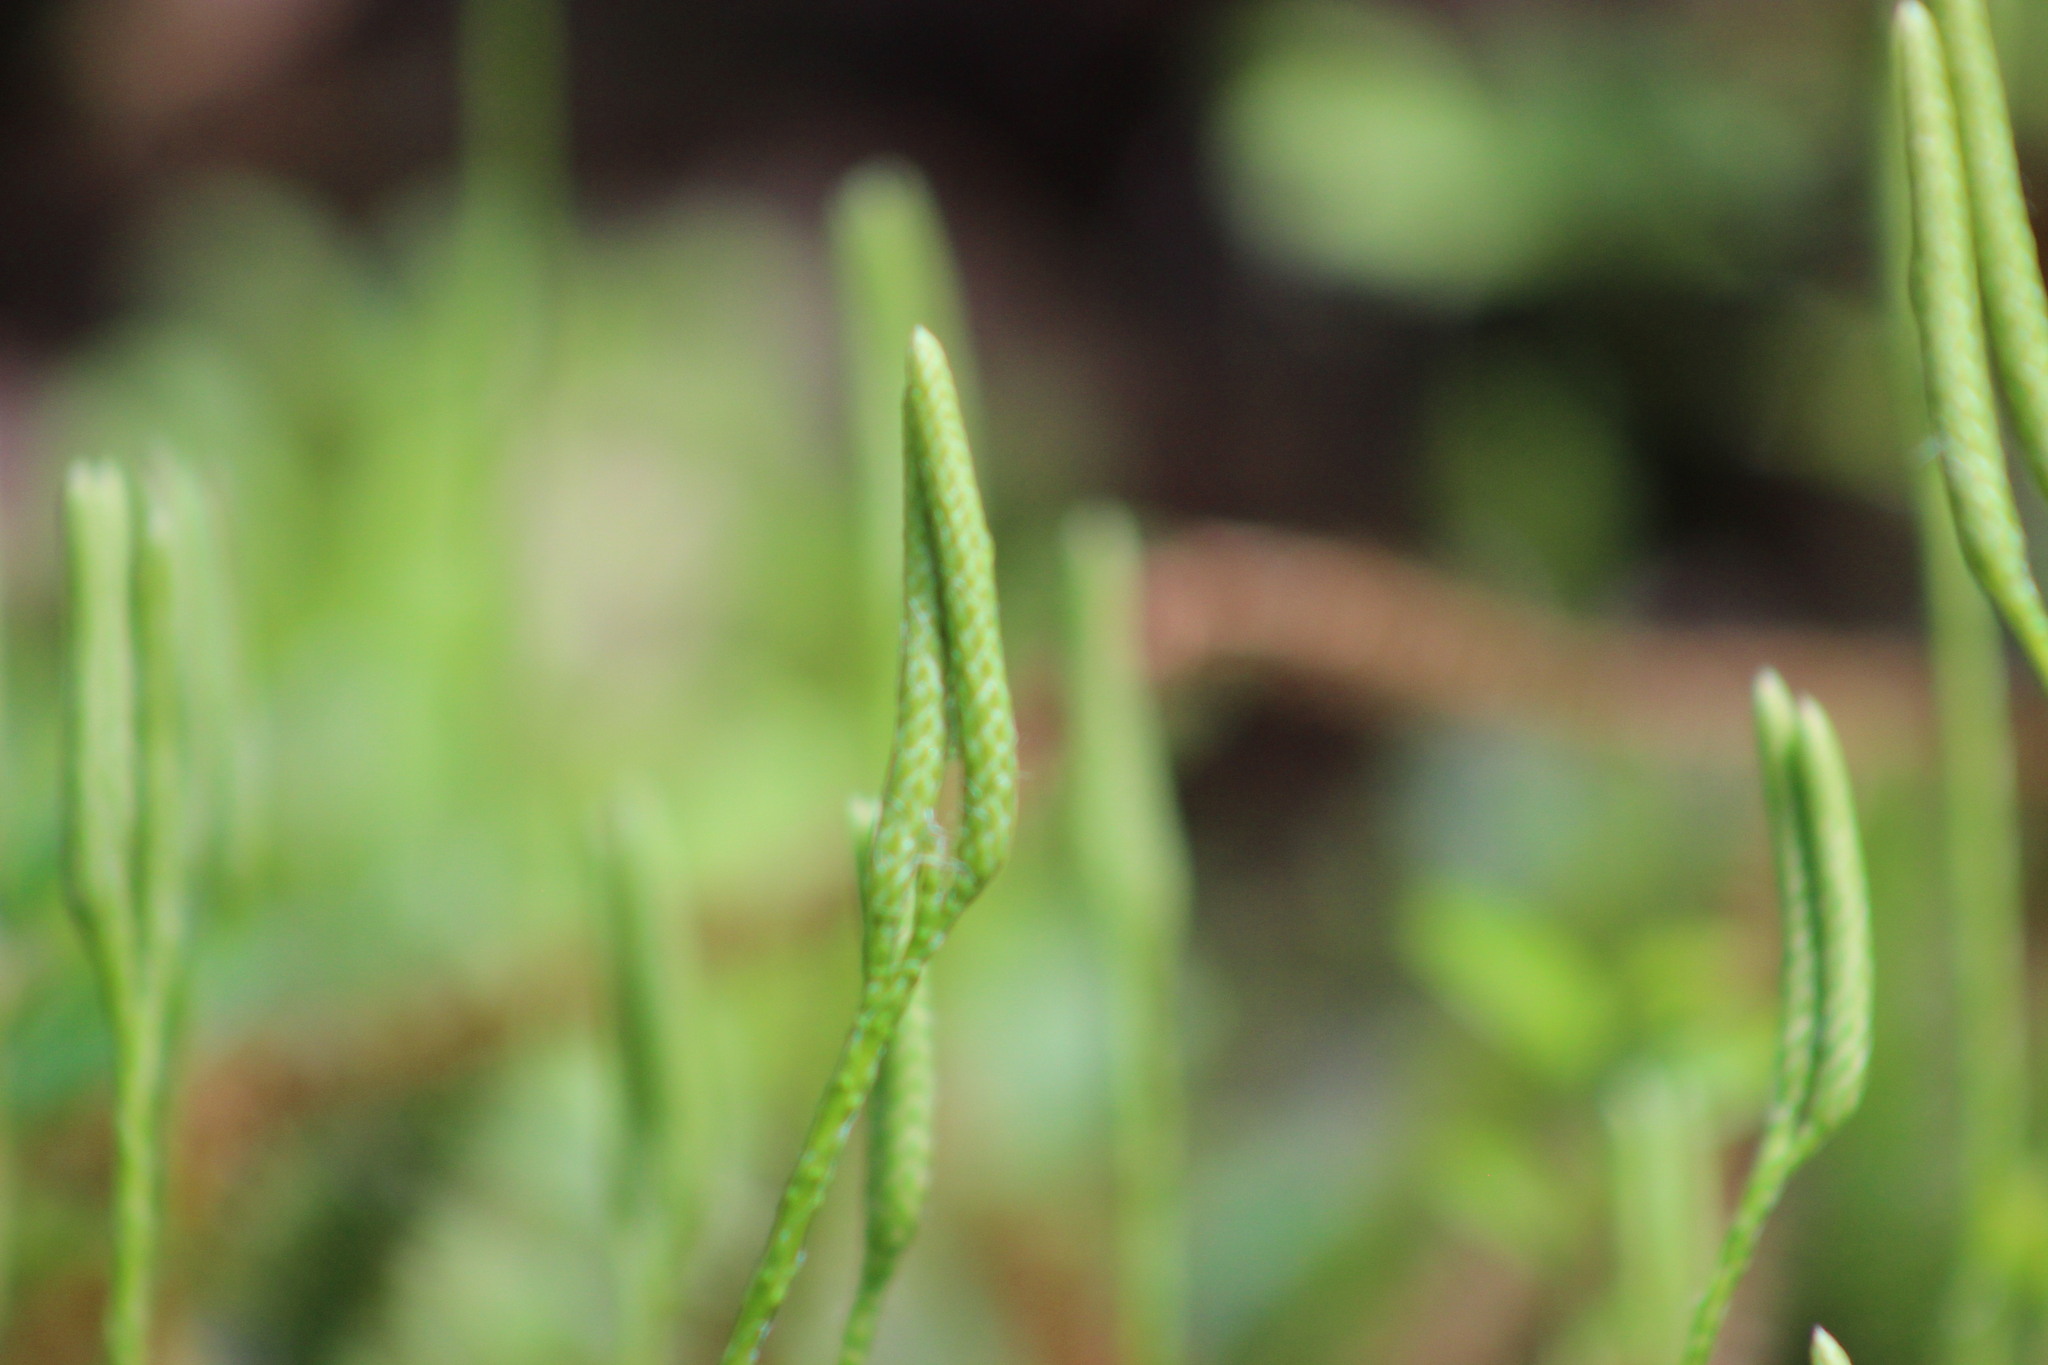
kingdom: Plantae
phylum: Tracheophyta
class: Lycopodiopsida
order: Lycopodiales
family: Lycopodiaceae
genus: Lycopodium
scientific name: Lycopodium clavatum
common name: Stag's-horn clubmoss
